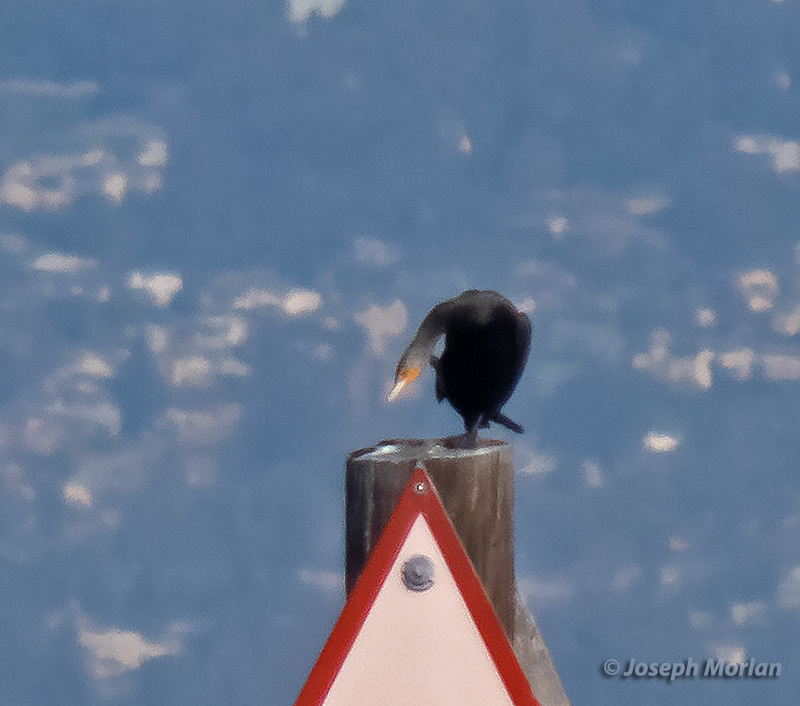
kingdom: Animalia
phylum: Chordata
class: Aves
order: Suliformes
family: Phalacrocoracidae
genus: Phalacrocorax
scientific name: Phalacrocorax auritus
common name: Double-crested cormorant
